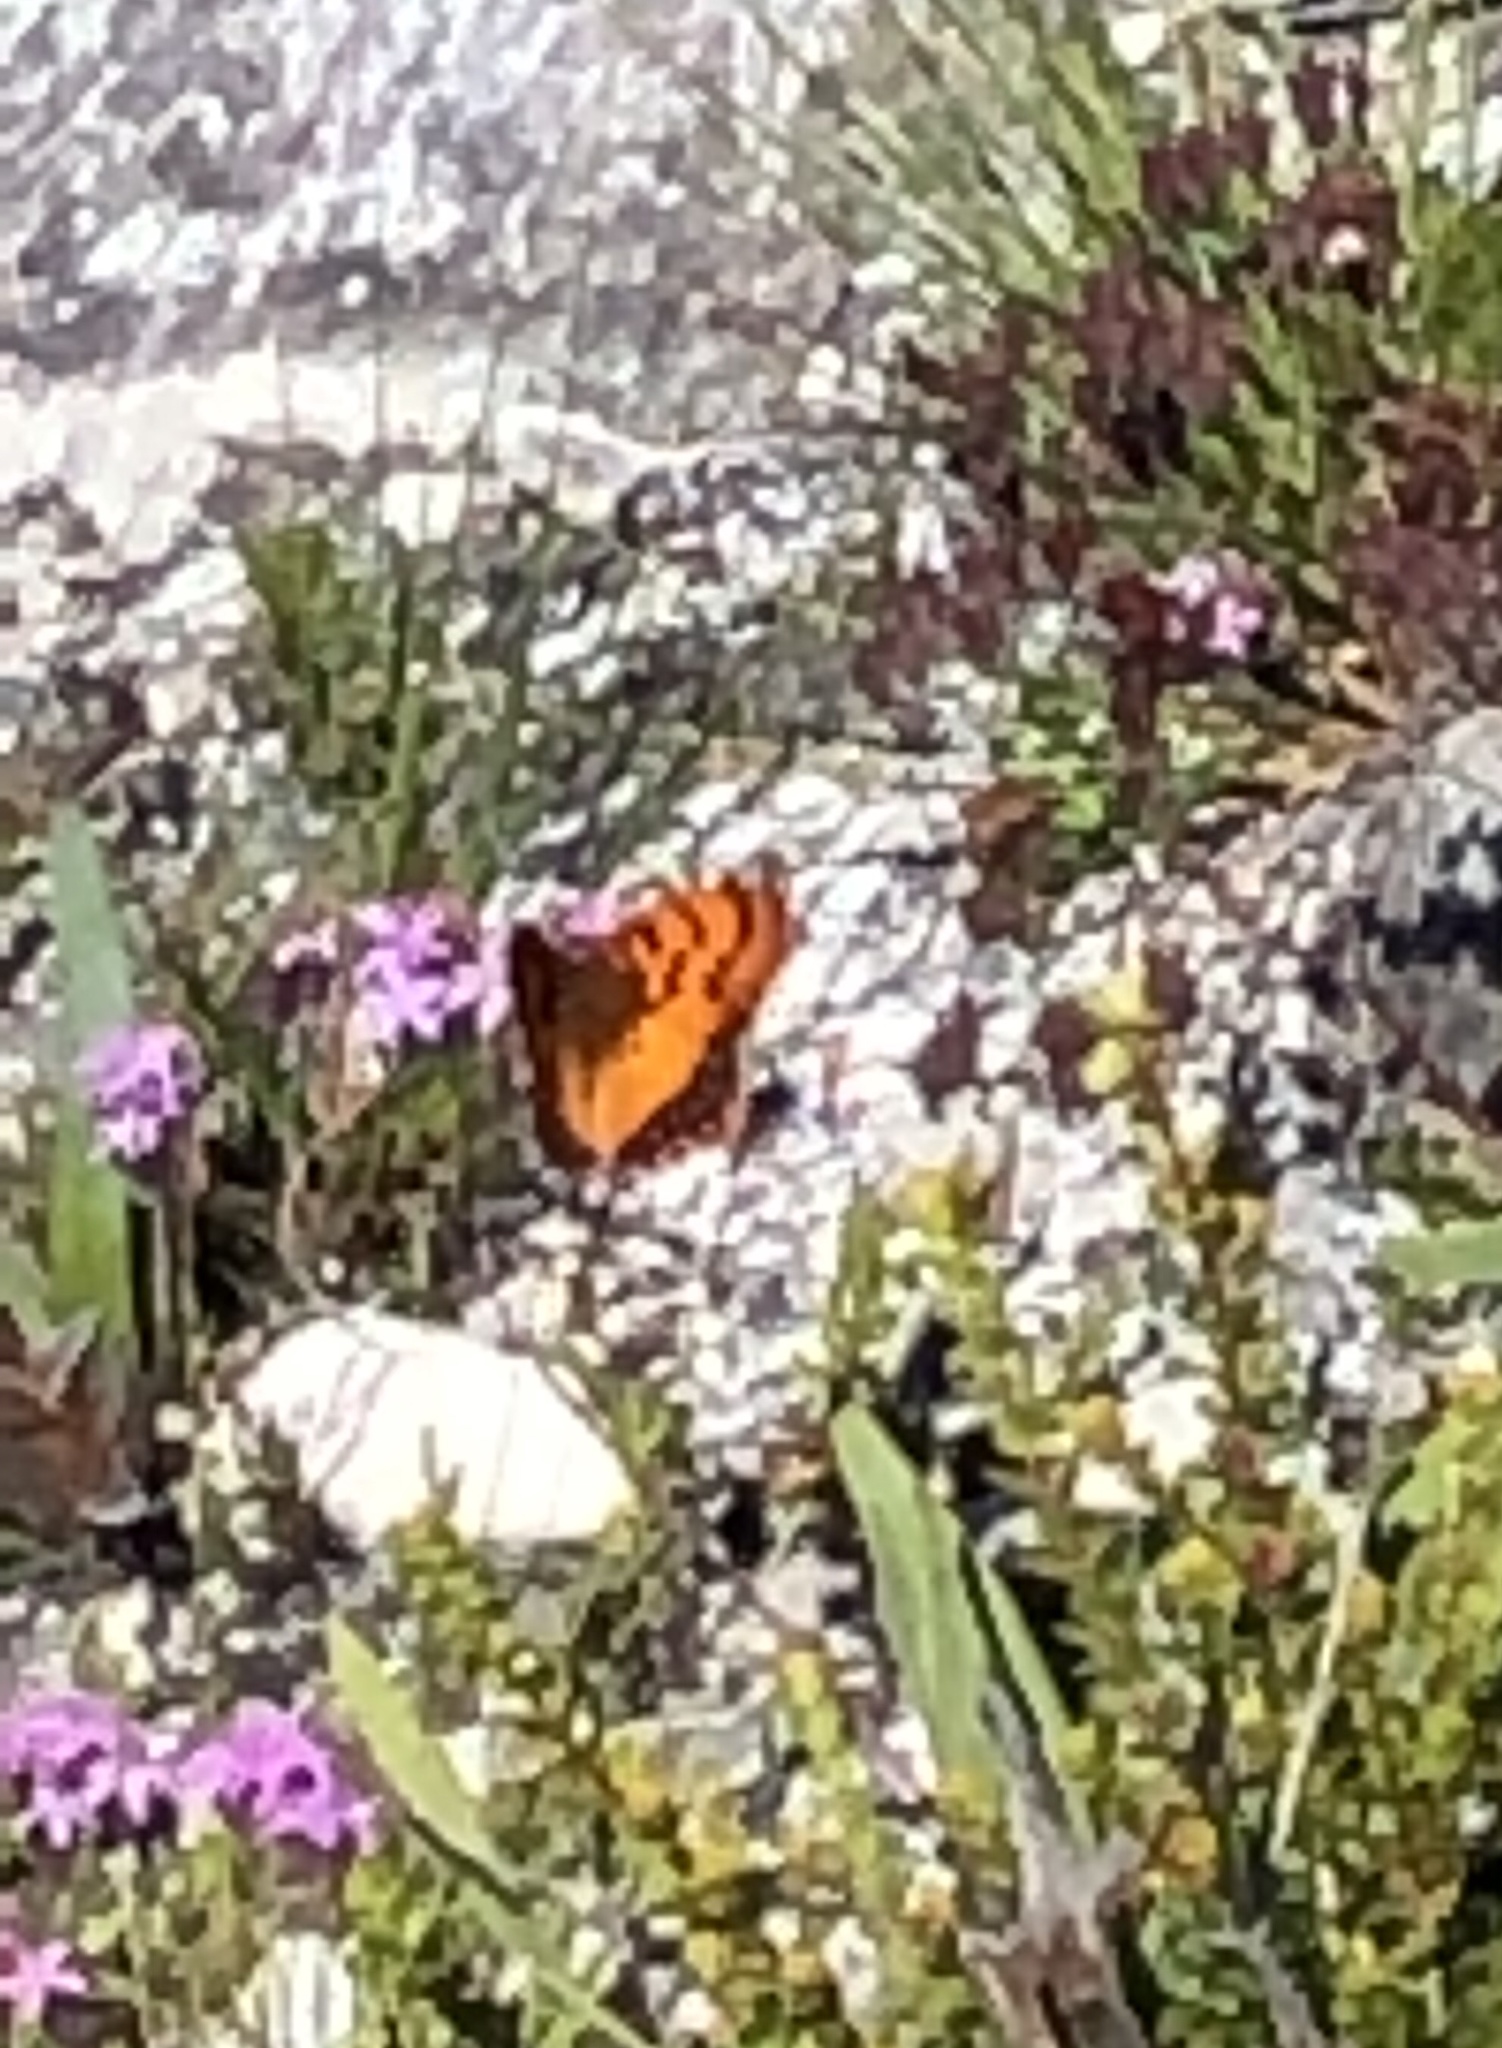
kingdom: Animalia
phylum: Arthropoda
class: Insecta
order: Lepidoptera
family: Nymphalidae
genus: Catacroptera
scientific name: Catacroptera cloanthe
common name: Pirate
